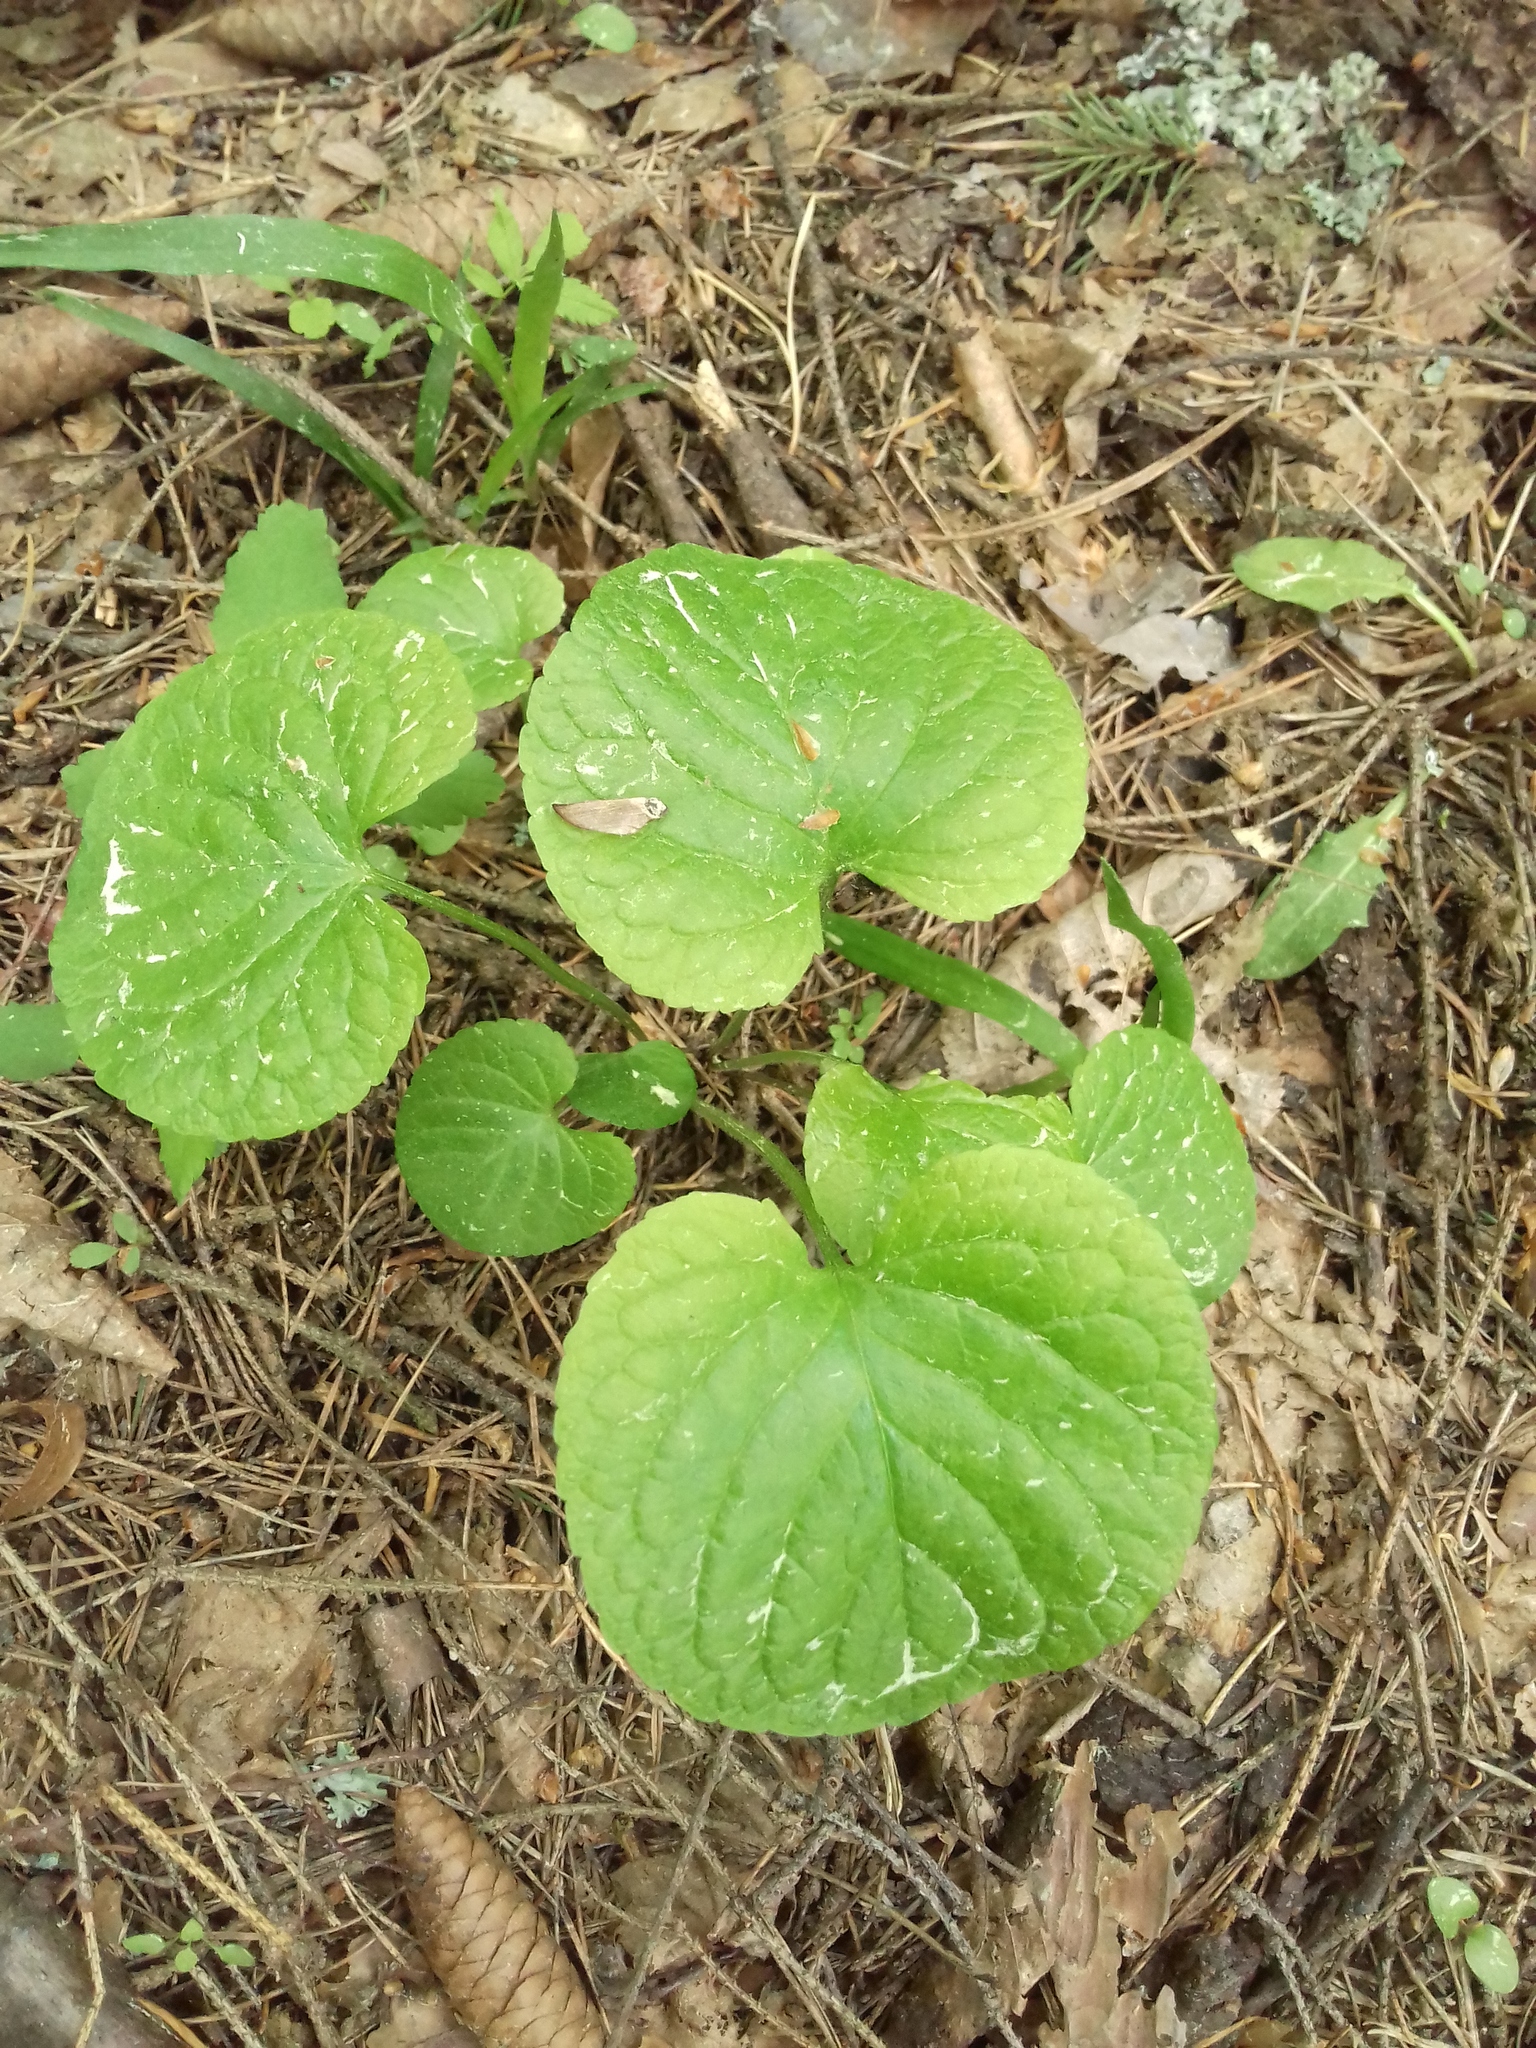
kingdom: Plantae
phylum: Tracheophyta
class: Magnoliopsida
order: Malpighiales
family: Violaceae
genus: Viola
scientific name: Viola mirabilis
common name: Wonder violet
